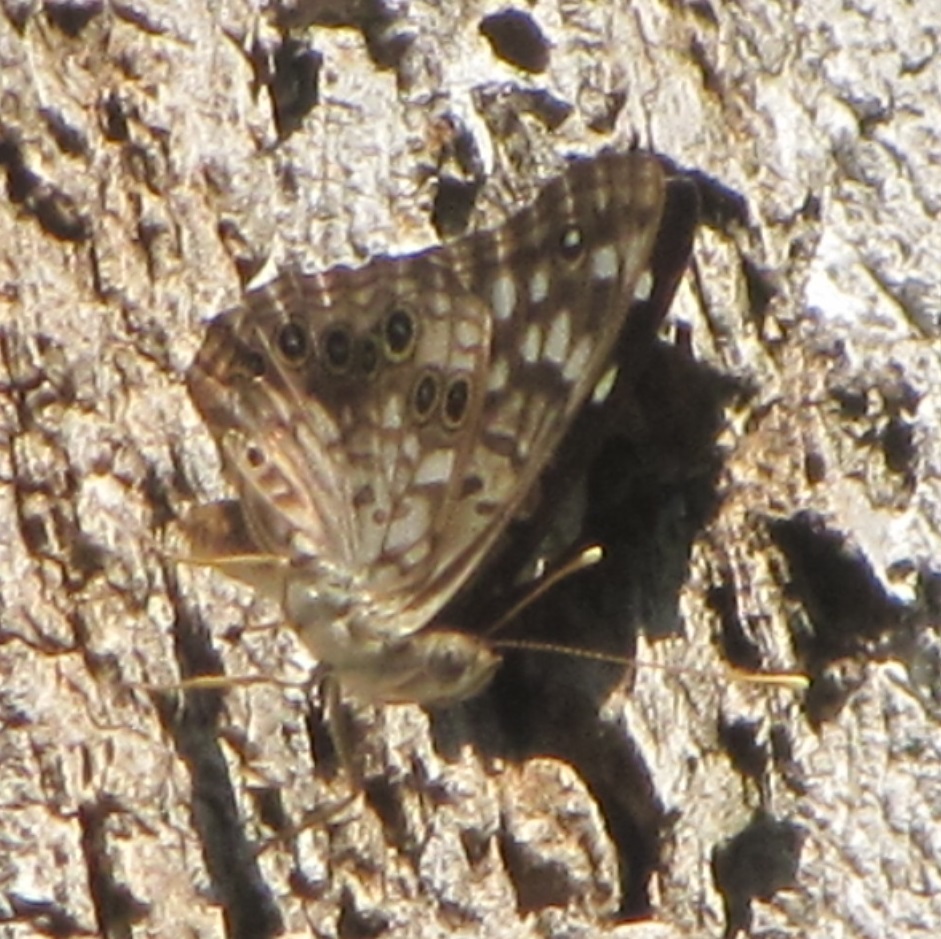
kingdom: Animalia
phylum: Arthropoda
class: Insecta
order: Lepidoptera
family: Nymphalidae
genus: Asterocampa
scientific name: Asterocampa celtis
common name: Hackberry emperor
